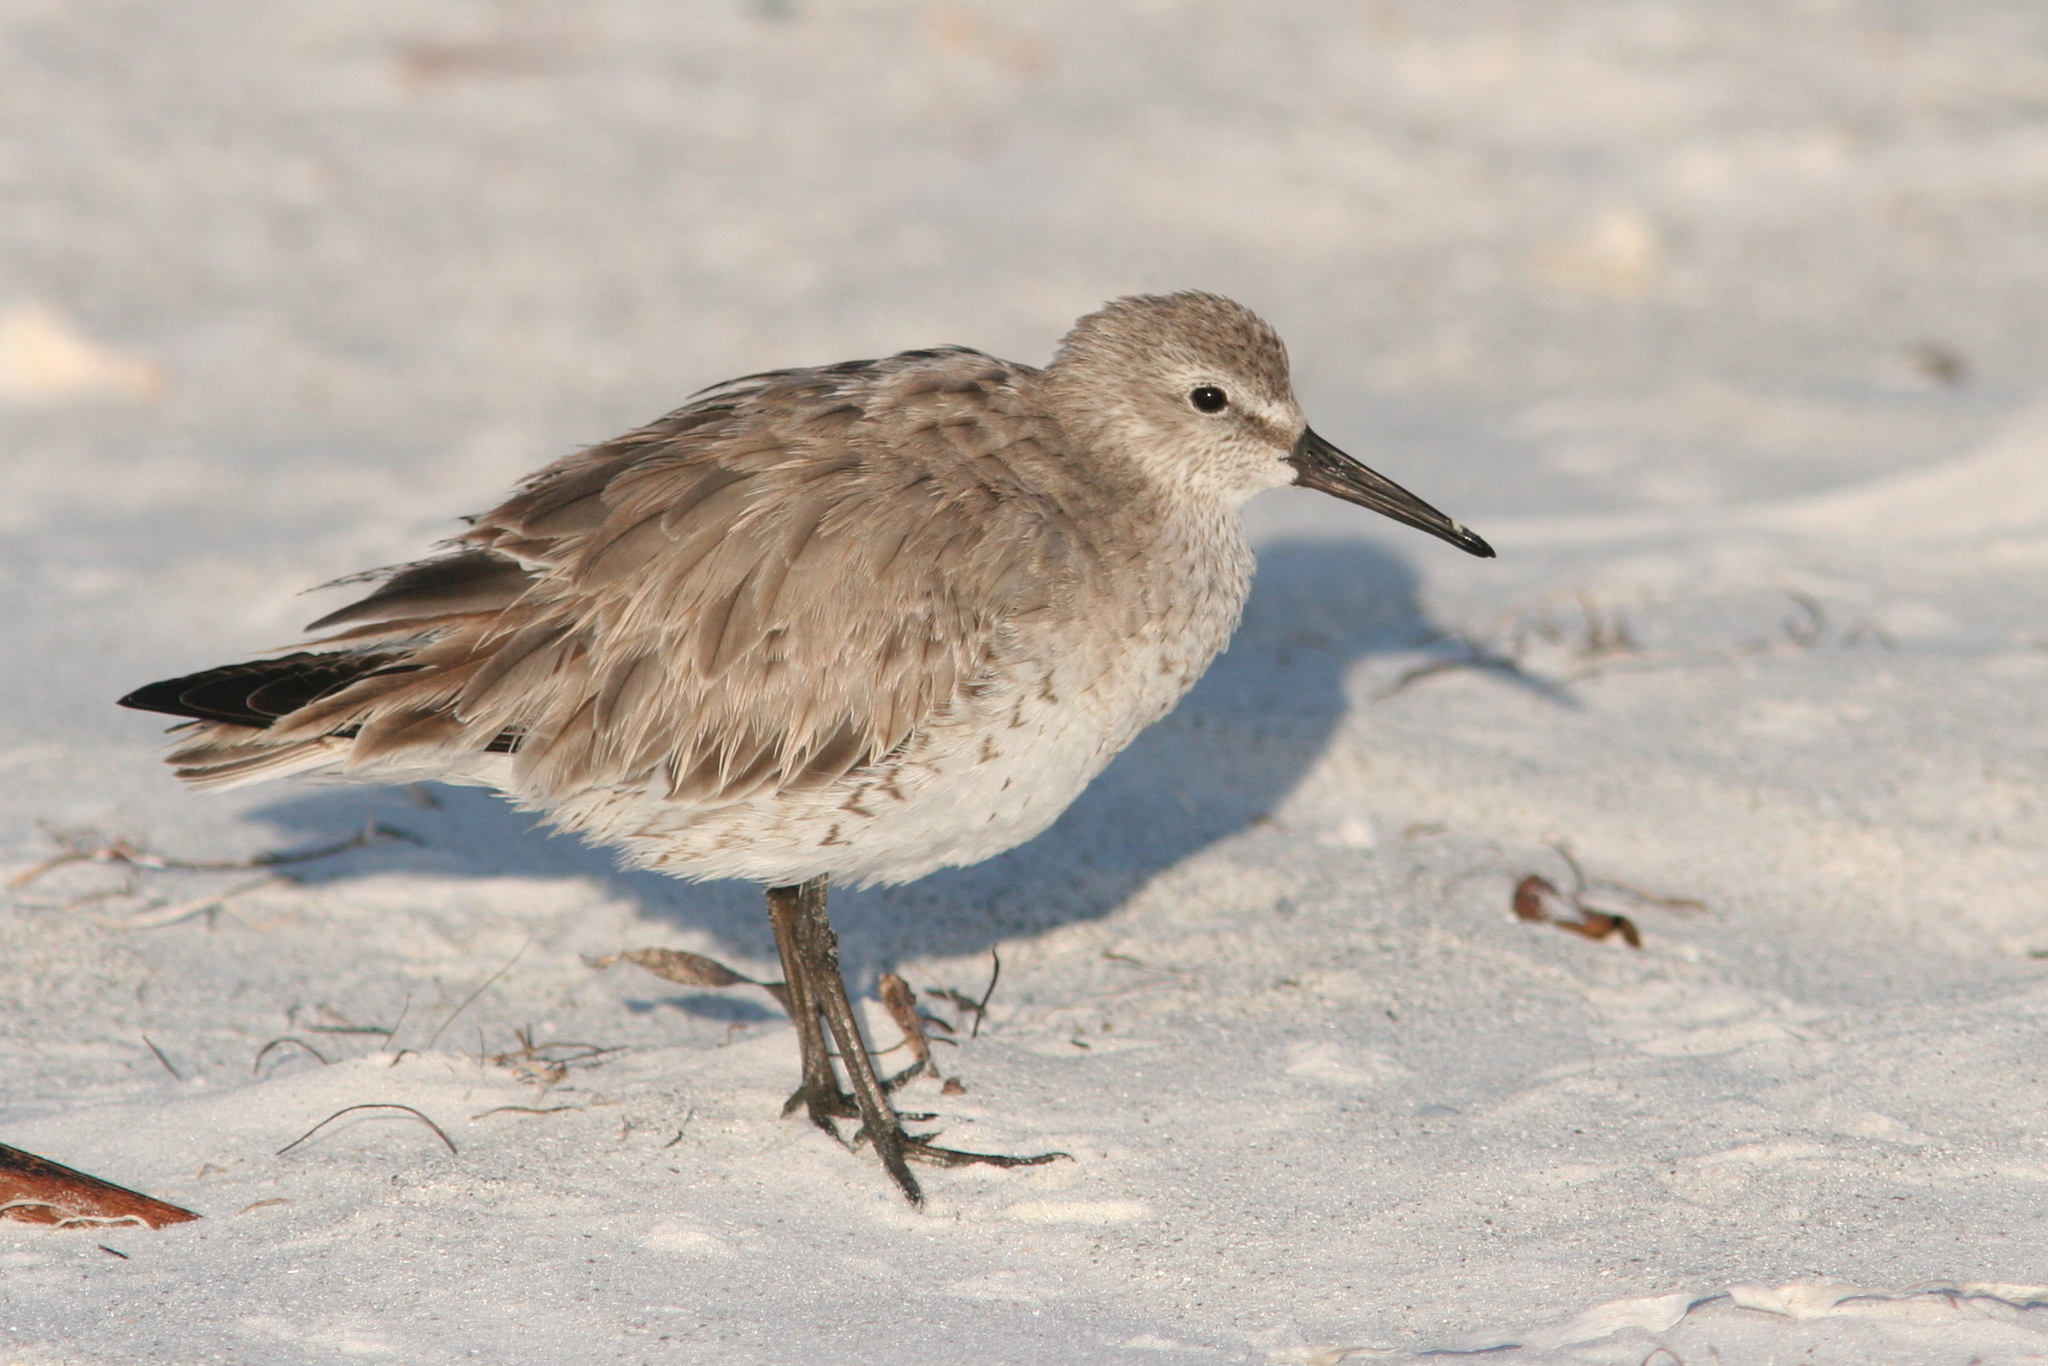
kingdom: Animalia
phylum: Chordata
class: Aves
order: Charadriiformes
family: Scolopacidae
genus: Calidris
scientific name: Calidris canutus
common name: Red knot
